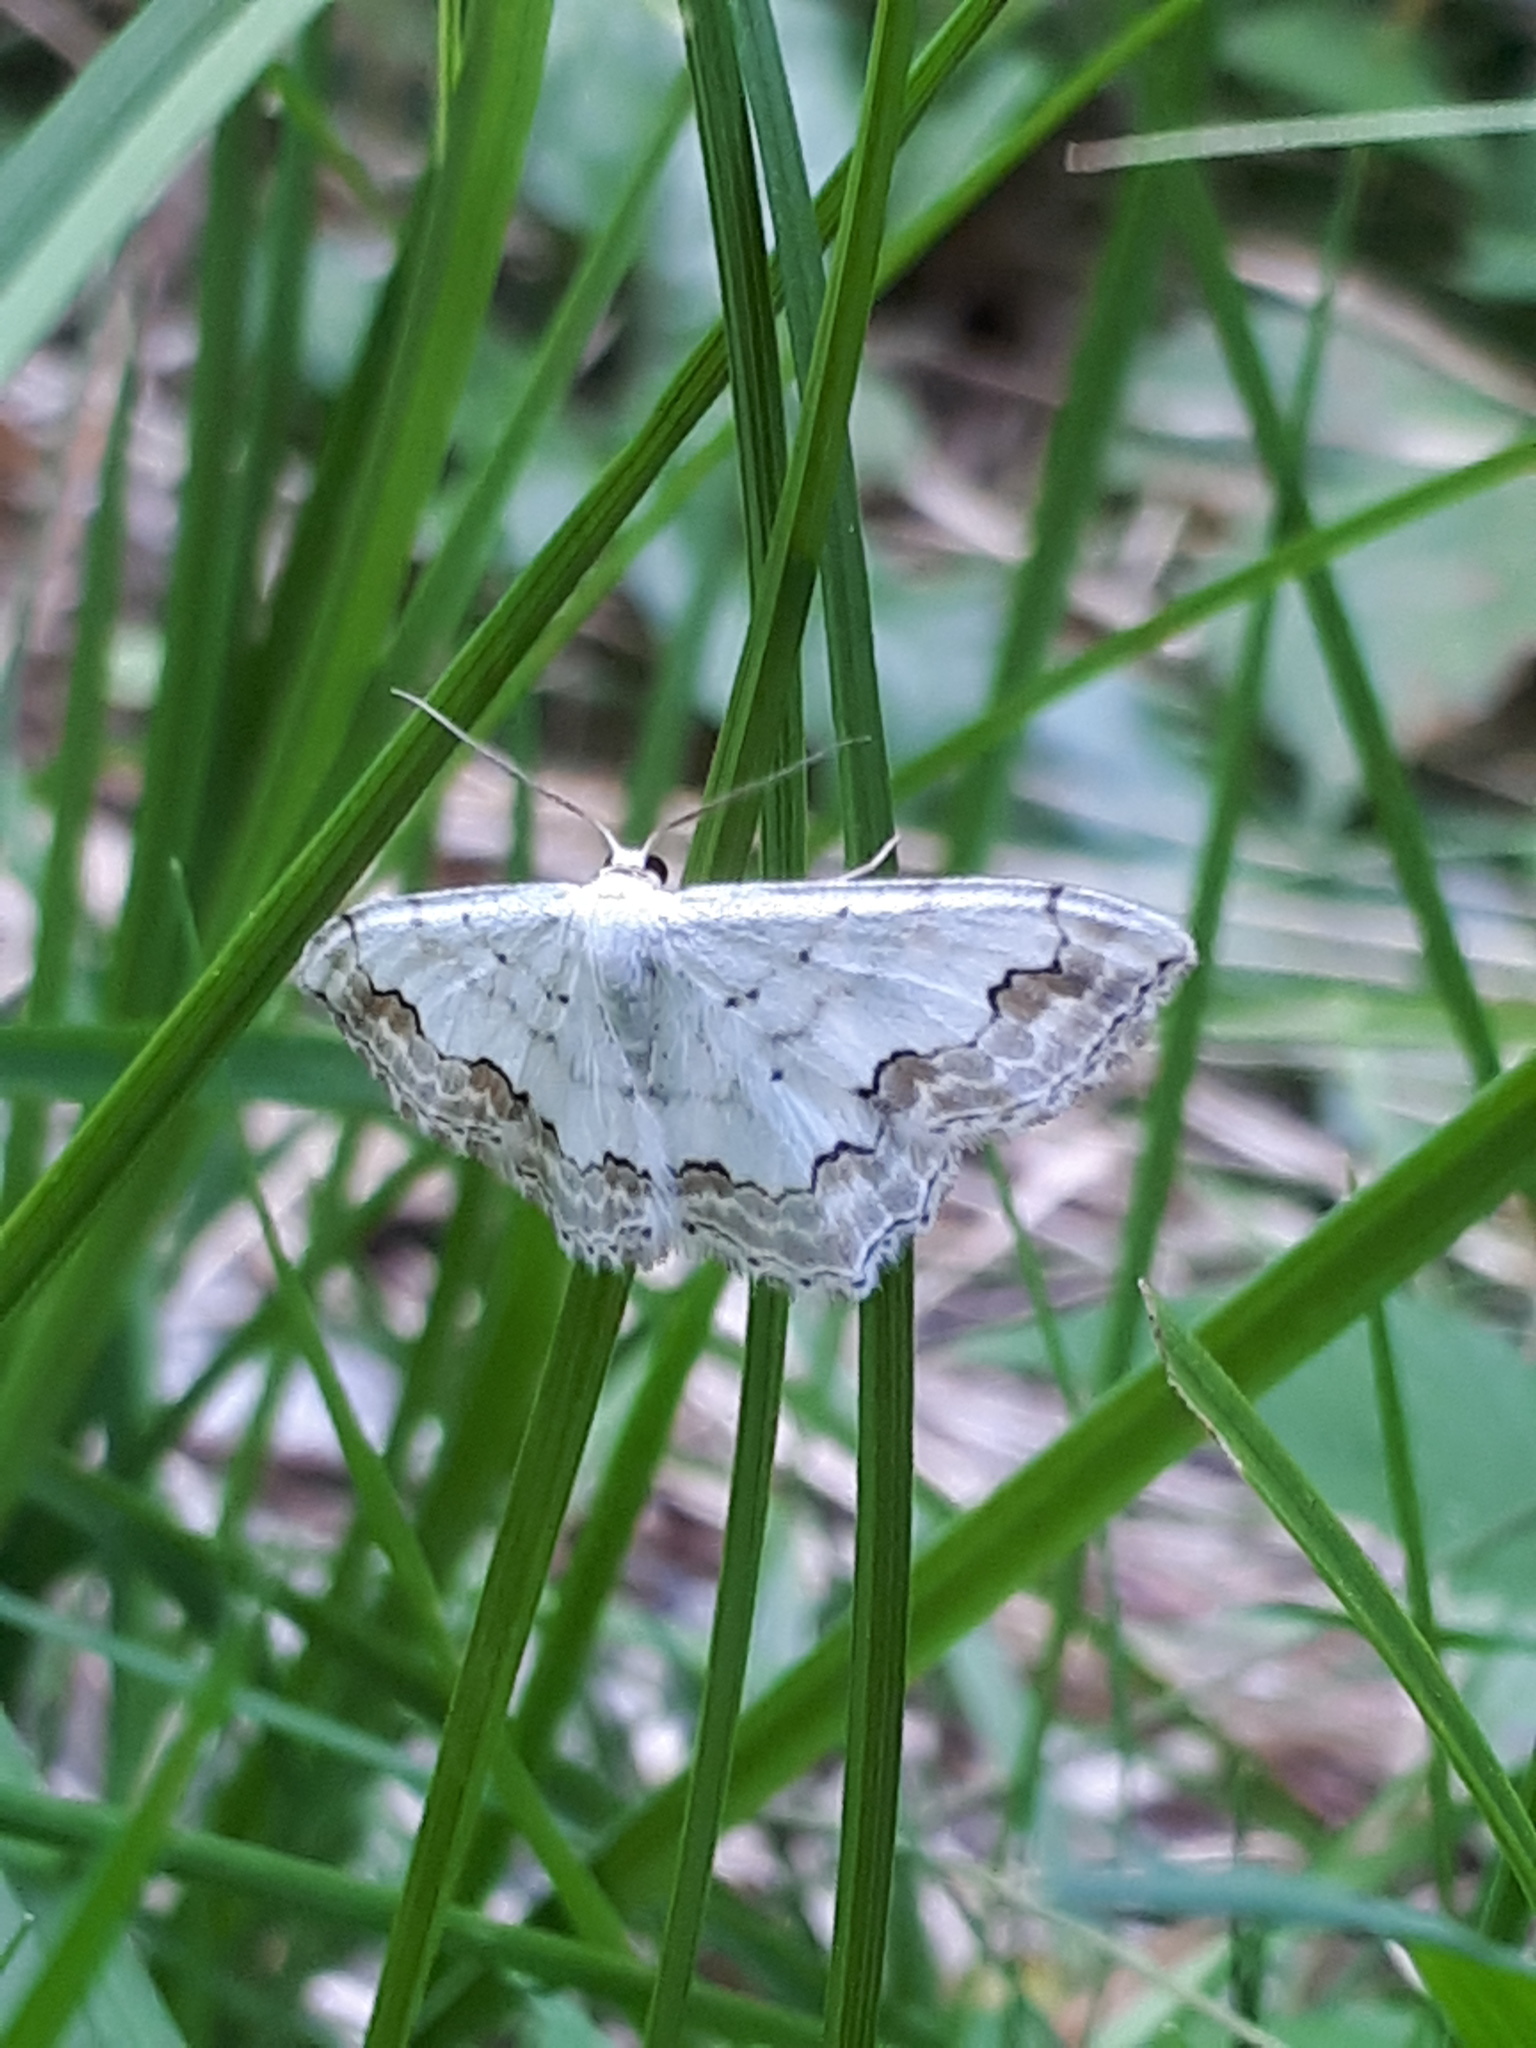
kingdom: Animalia
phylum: Arthropoda
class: Insecta
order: Lepidoptera
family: Geometridae
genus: Scopula
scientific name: Scopula ornata
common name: Lace border
